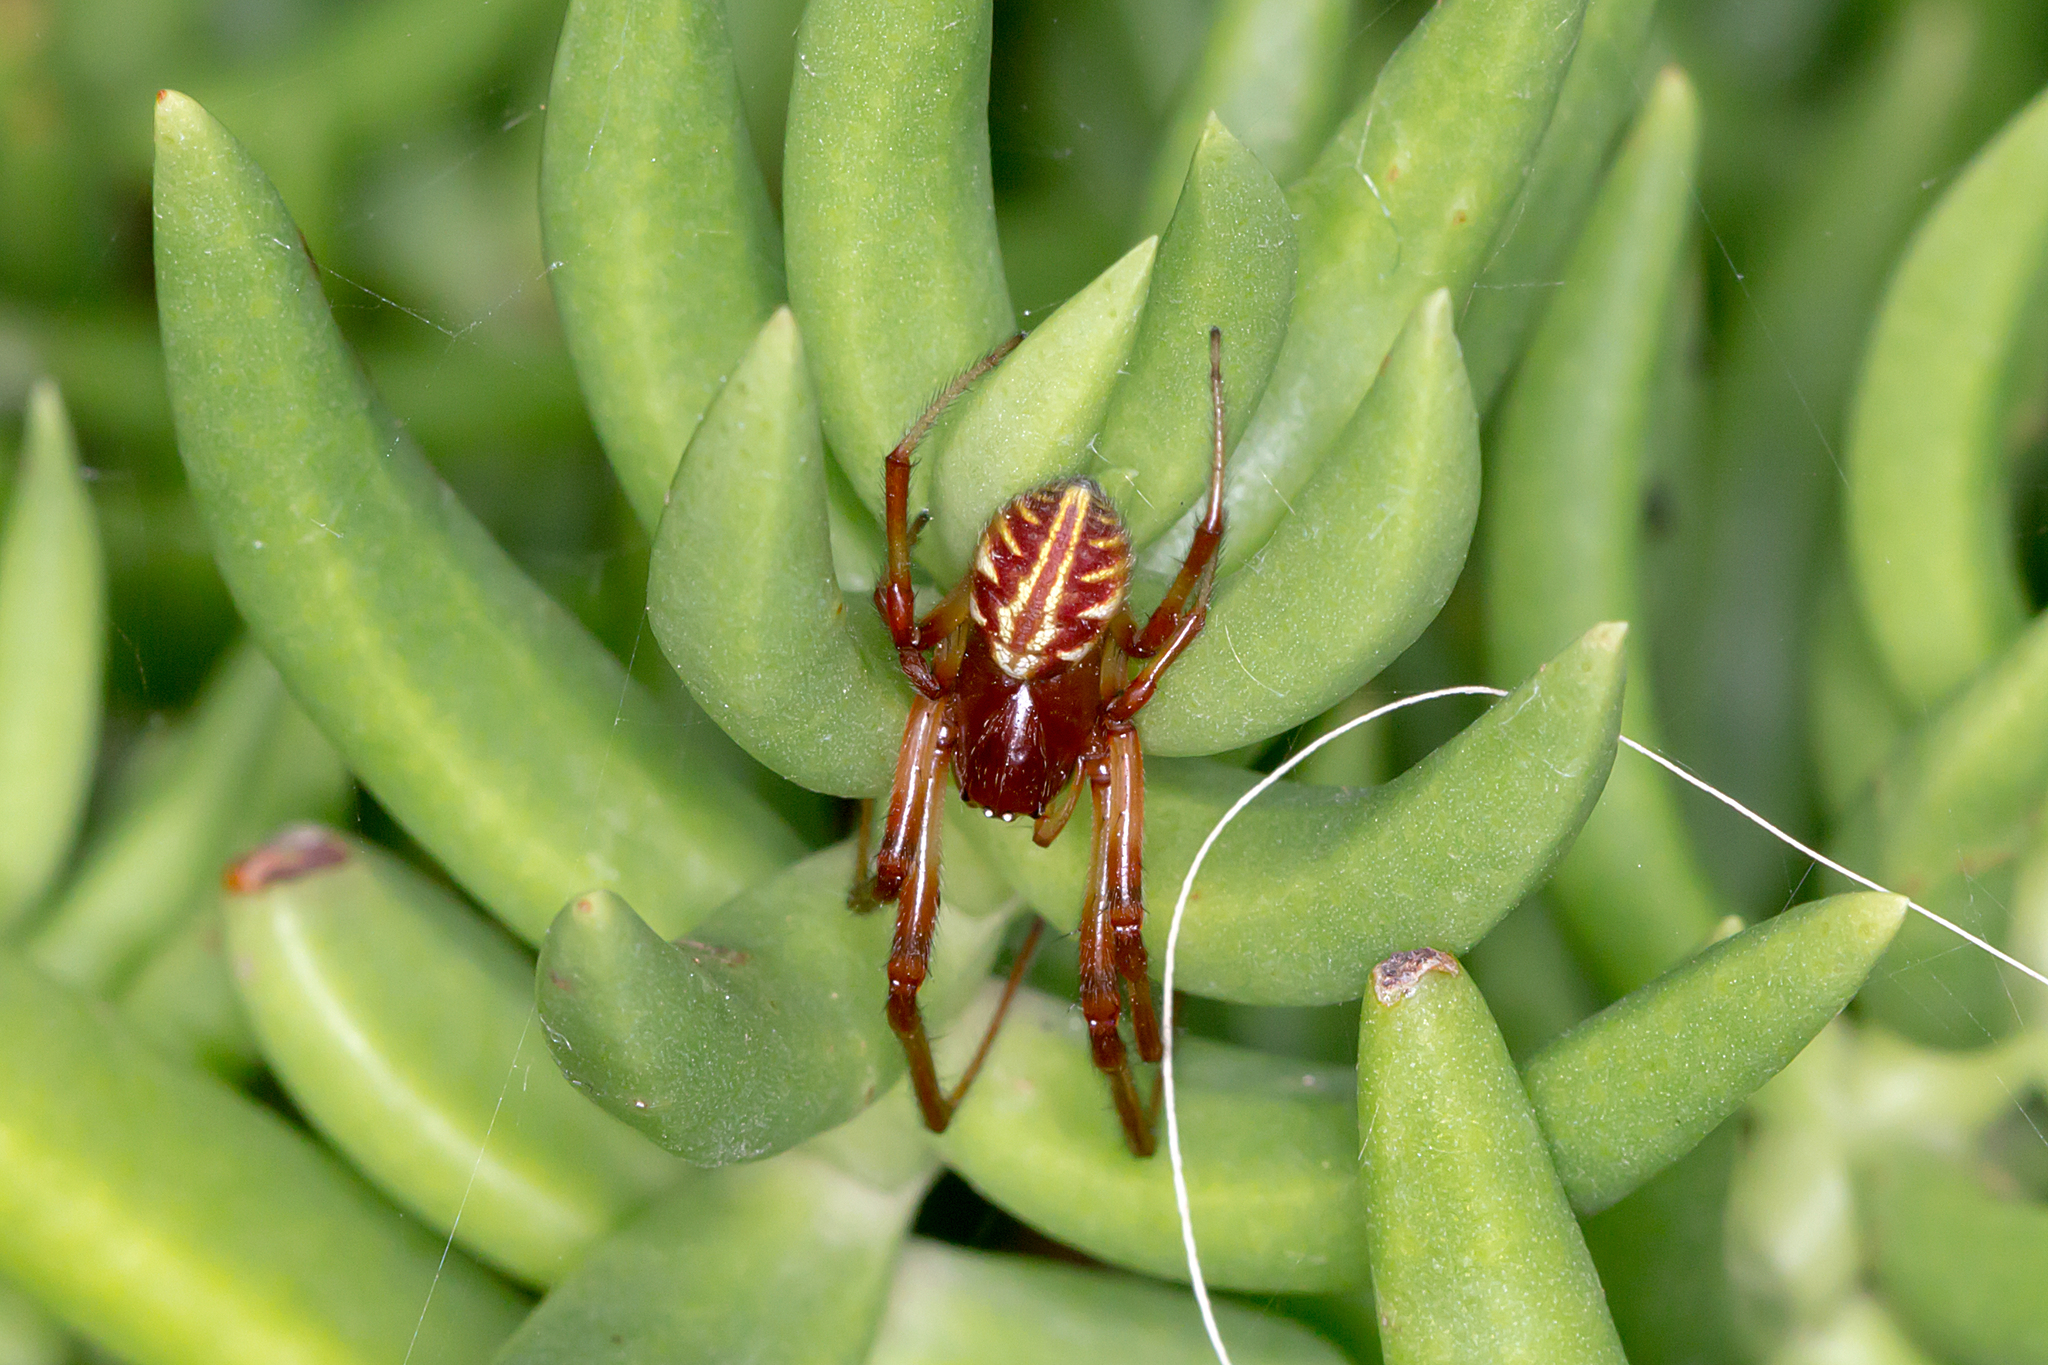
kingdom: Animalia
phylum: Arthropoda
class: Arachnida
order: Araneae
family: Araneidae
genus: Phonognatha
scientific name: Phonognatha graeffei
